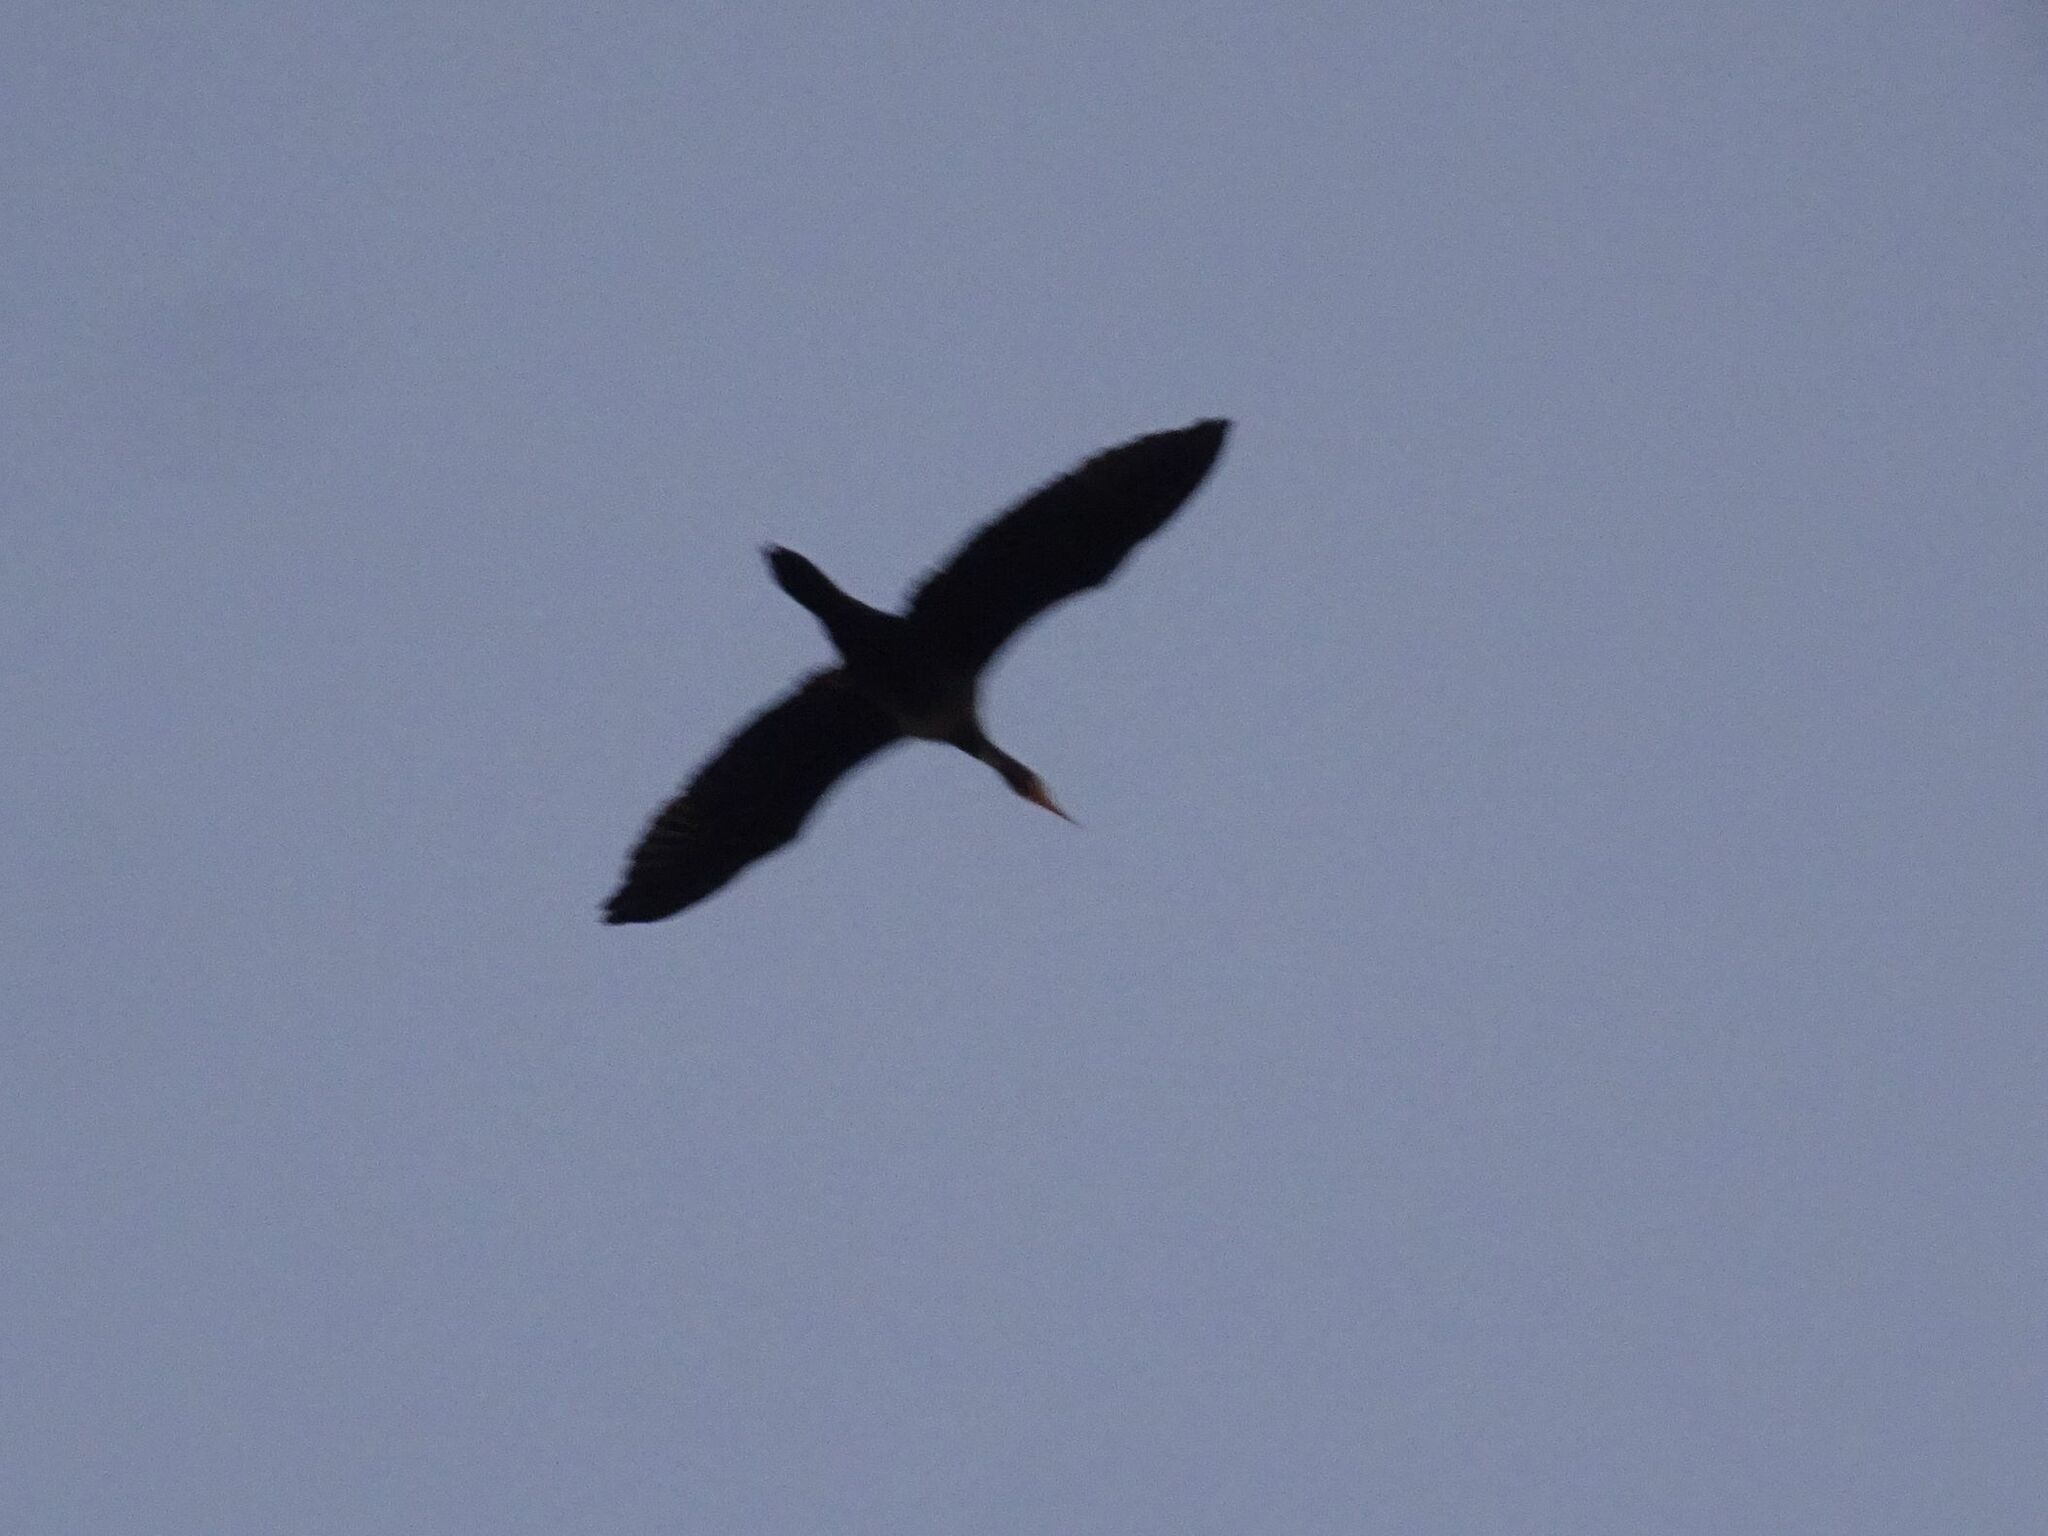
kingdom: Animalia
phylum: Chordata
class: Aves
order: Suliformes
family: Phalacrocoracidae
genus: Phalacrocorax
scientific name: Phalacrocorax carbo
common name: Great cormorant
